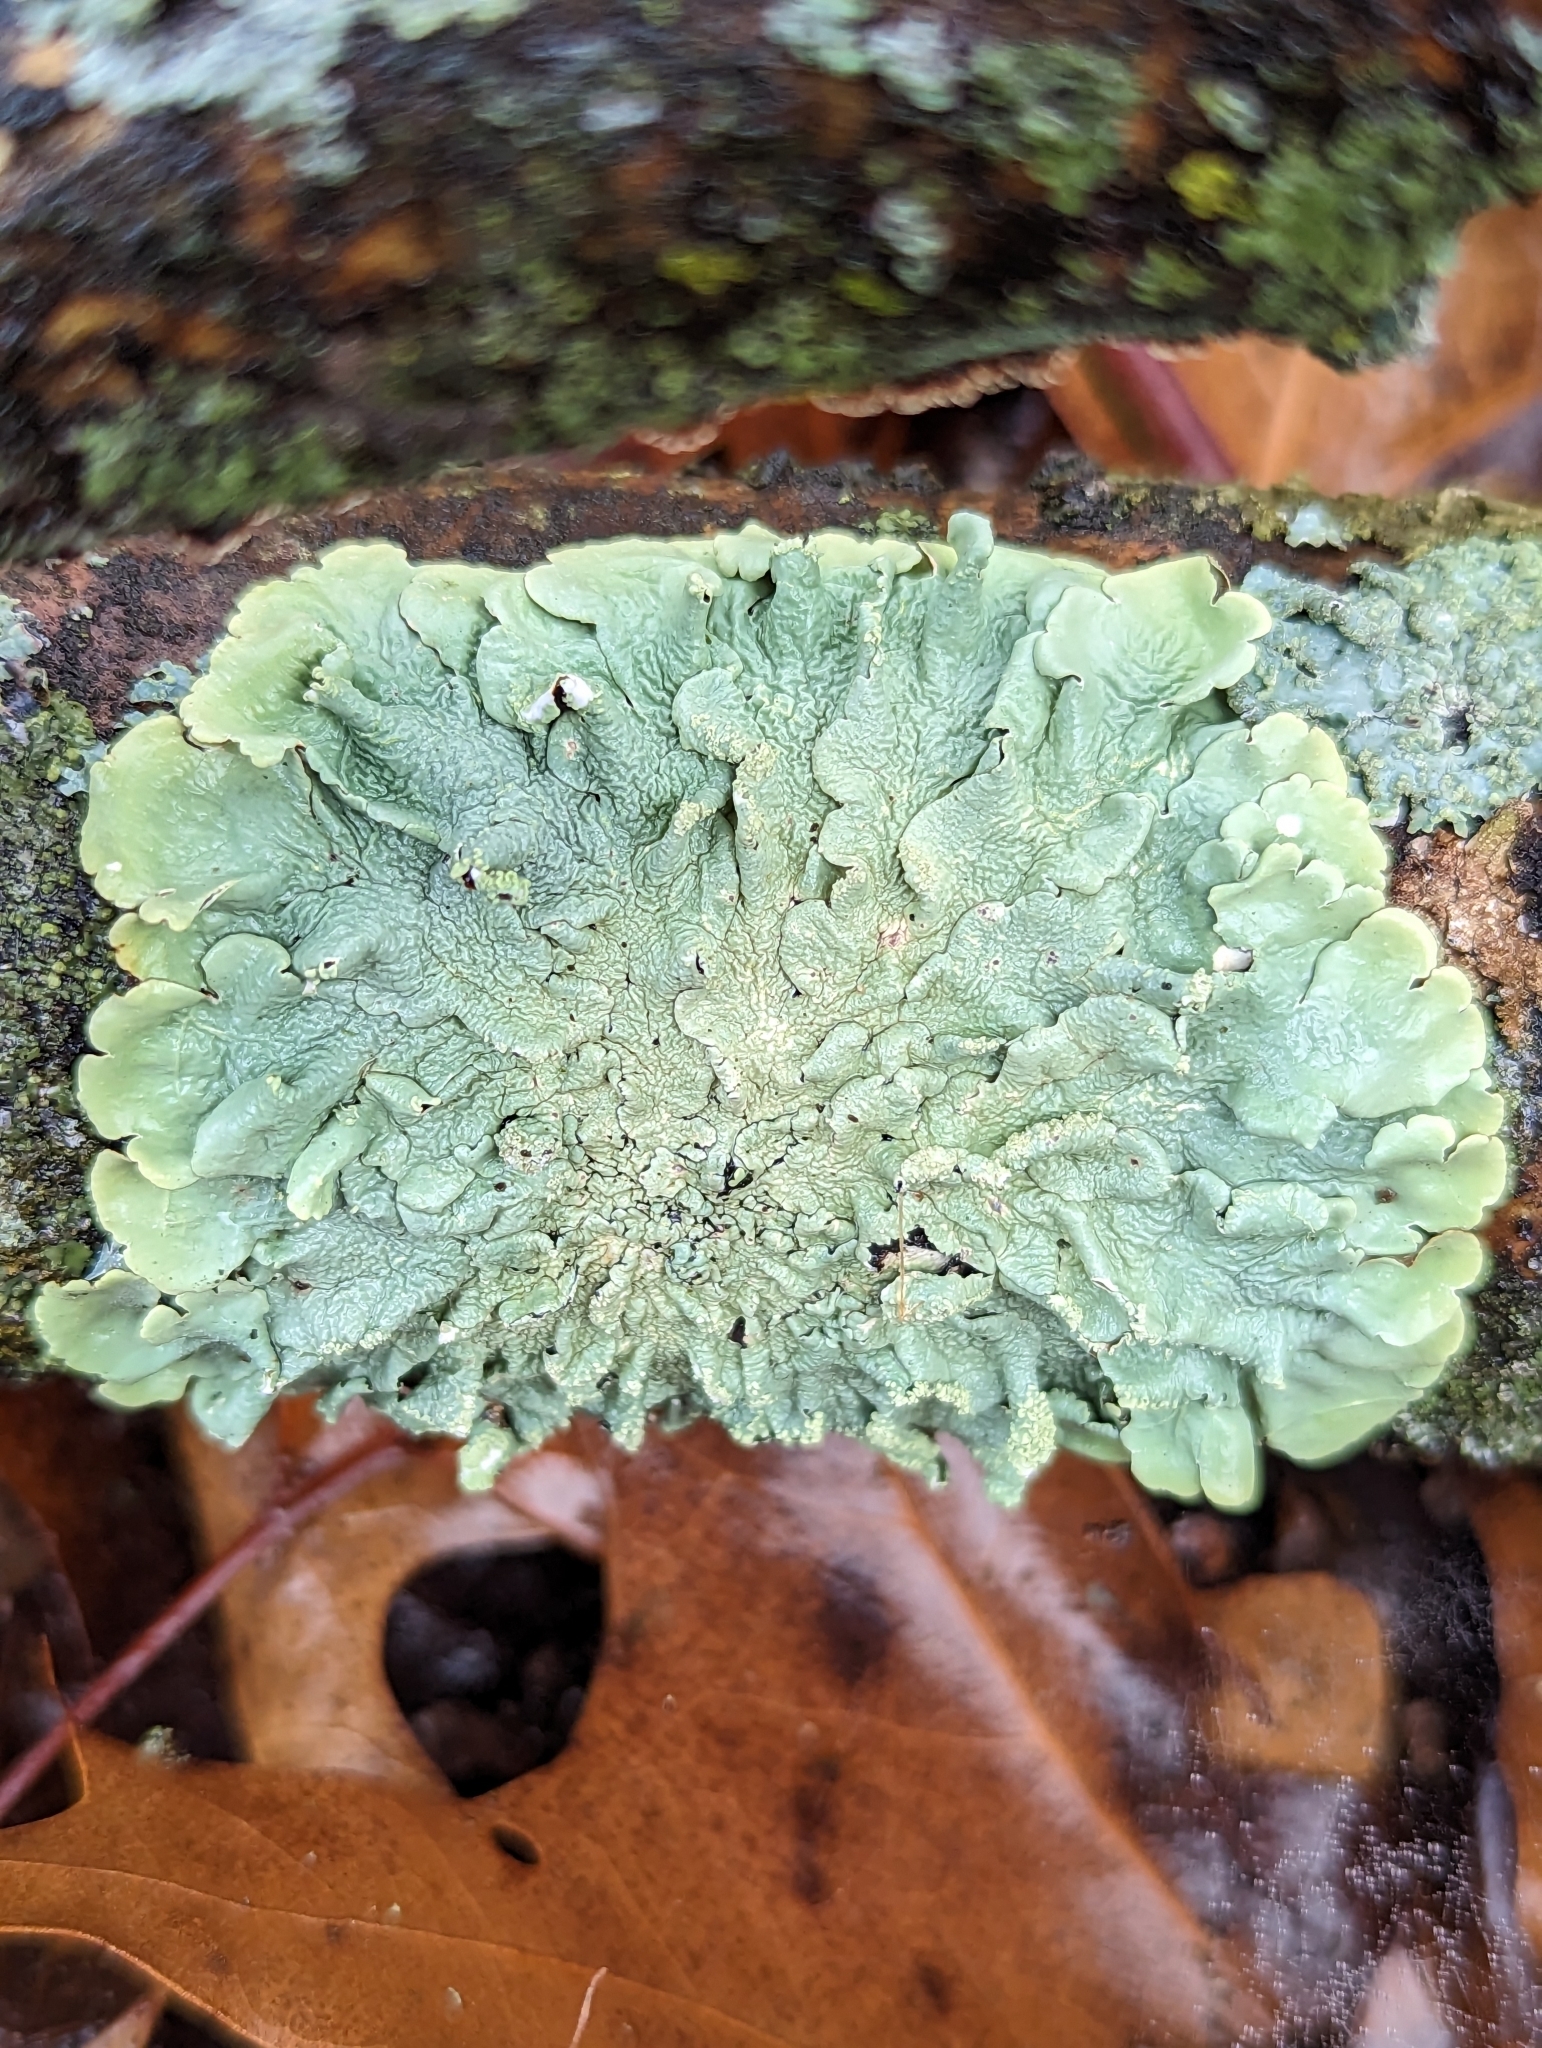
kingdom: Fungi
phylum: Ascomycota
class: Lecanoromycetes
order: Lecanorales
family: Parmeliaceae
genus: Flavoparmelia
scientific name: Flavoparmelia caperata
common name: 40-mile per hour lichen
